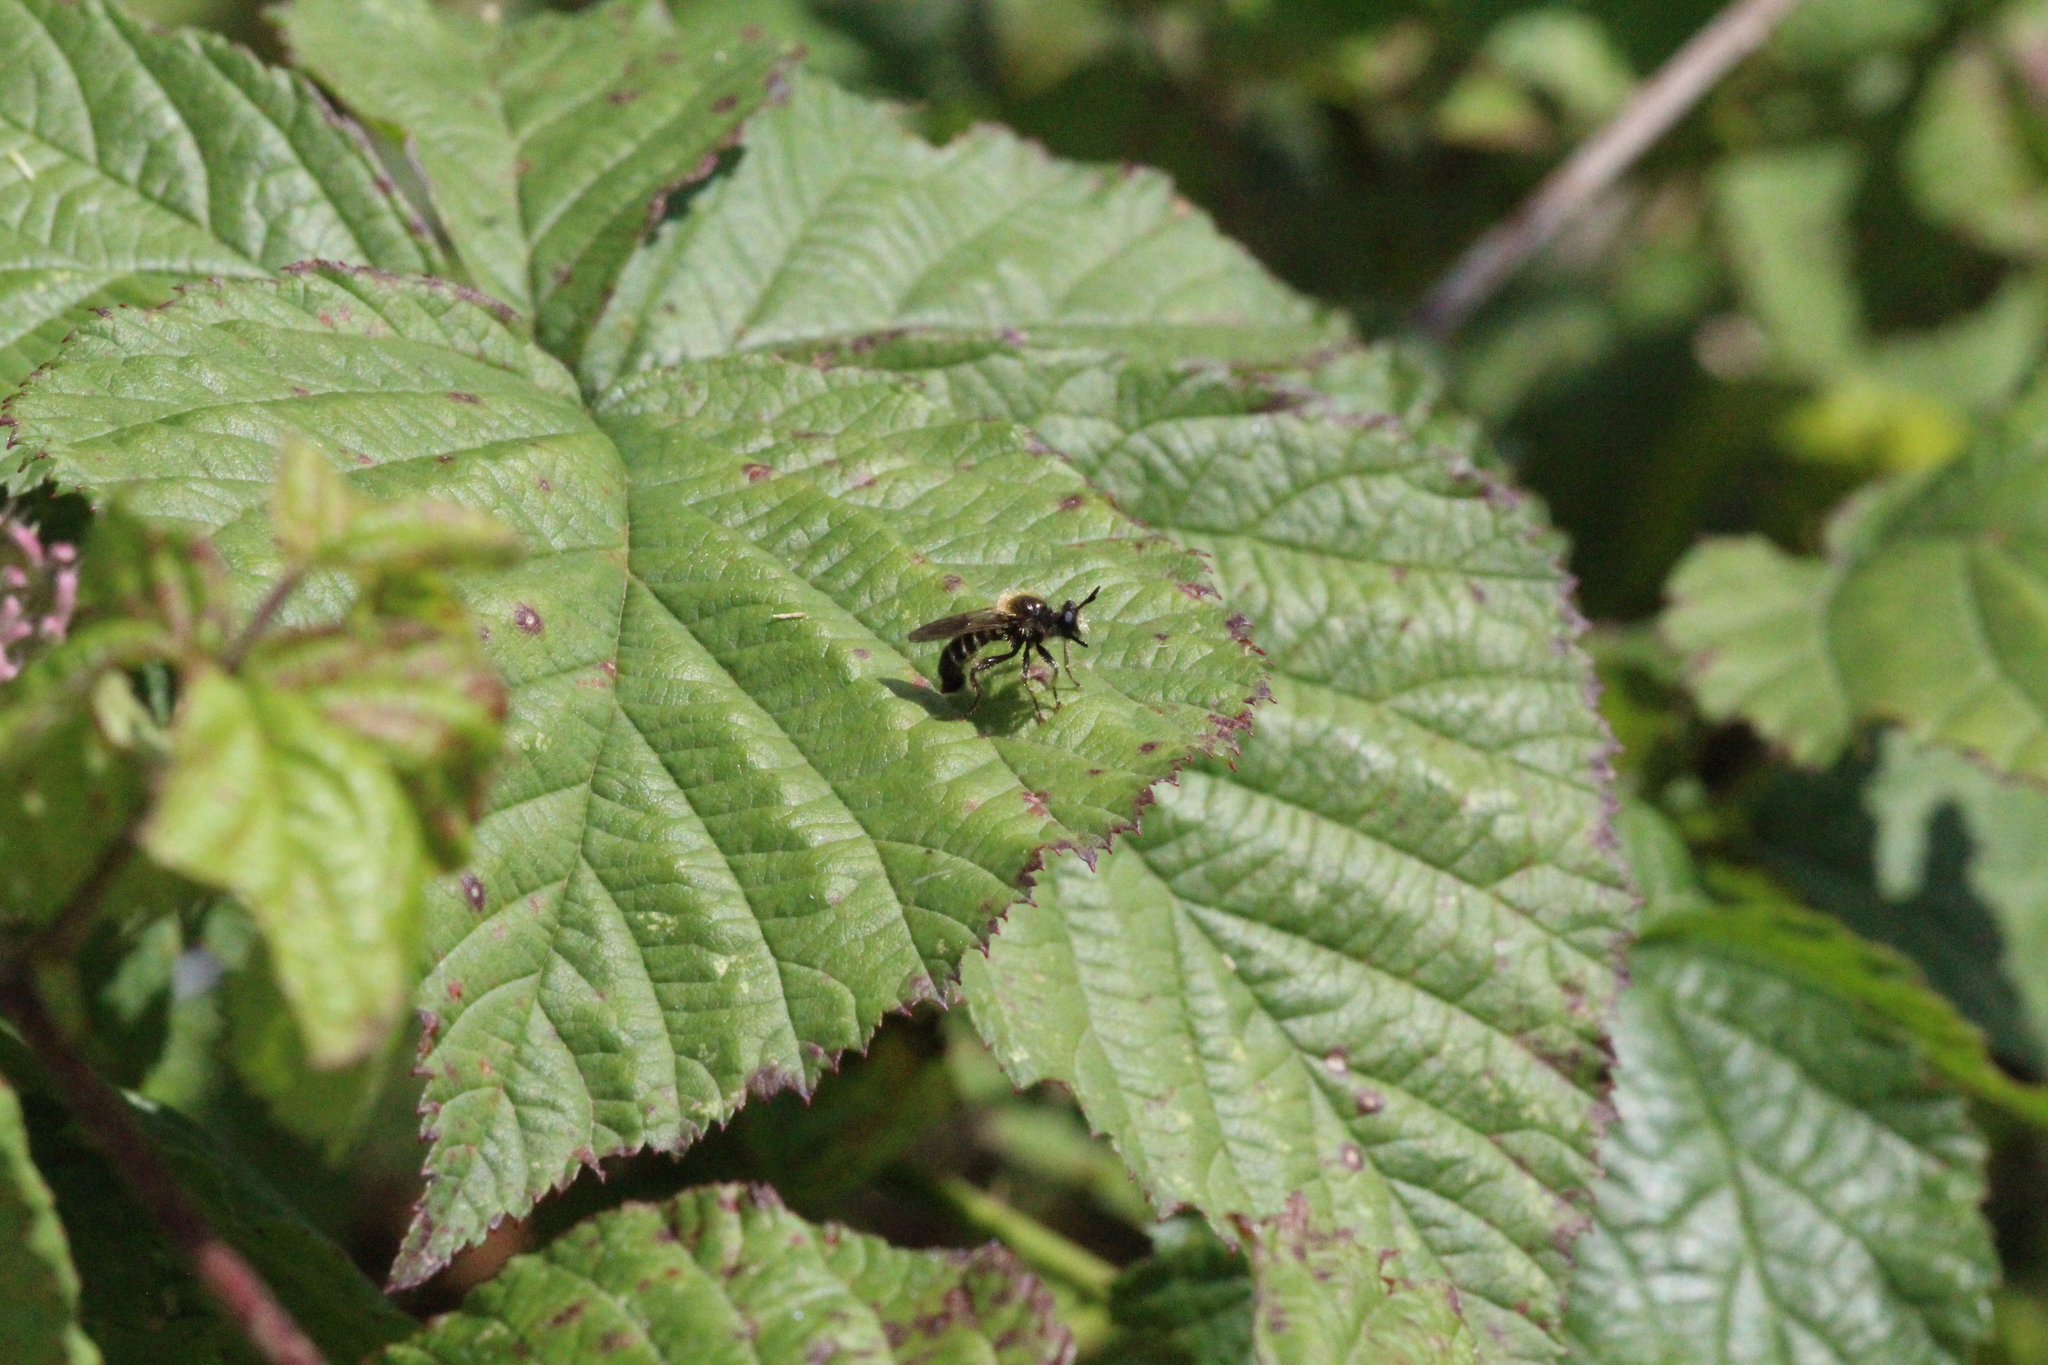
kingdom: Animalia
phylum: Arthropoda
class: Insecta
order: Diptera
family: Asilidae
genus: Lamyra
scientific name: Lamyra fuliginosa
